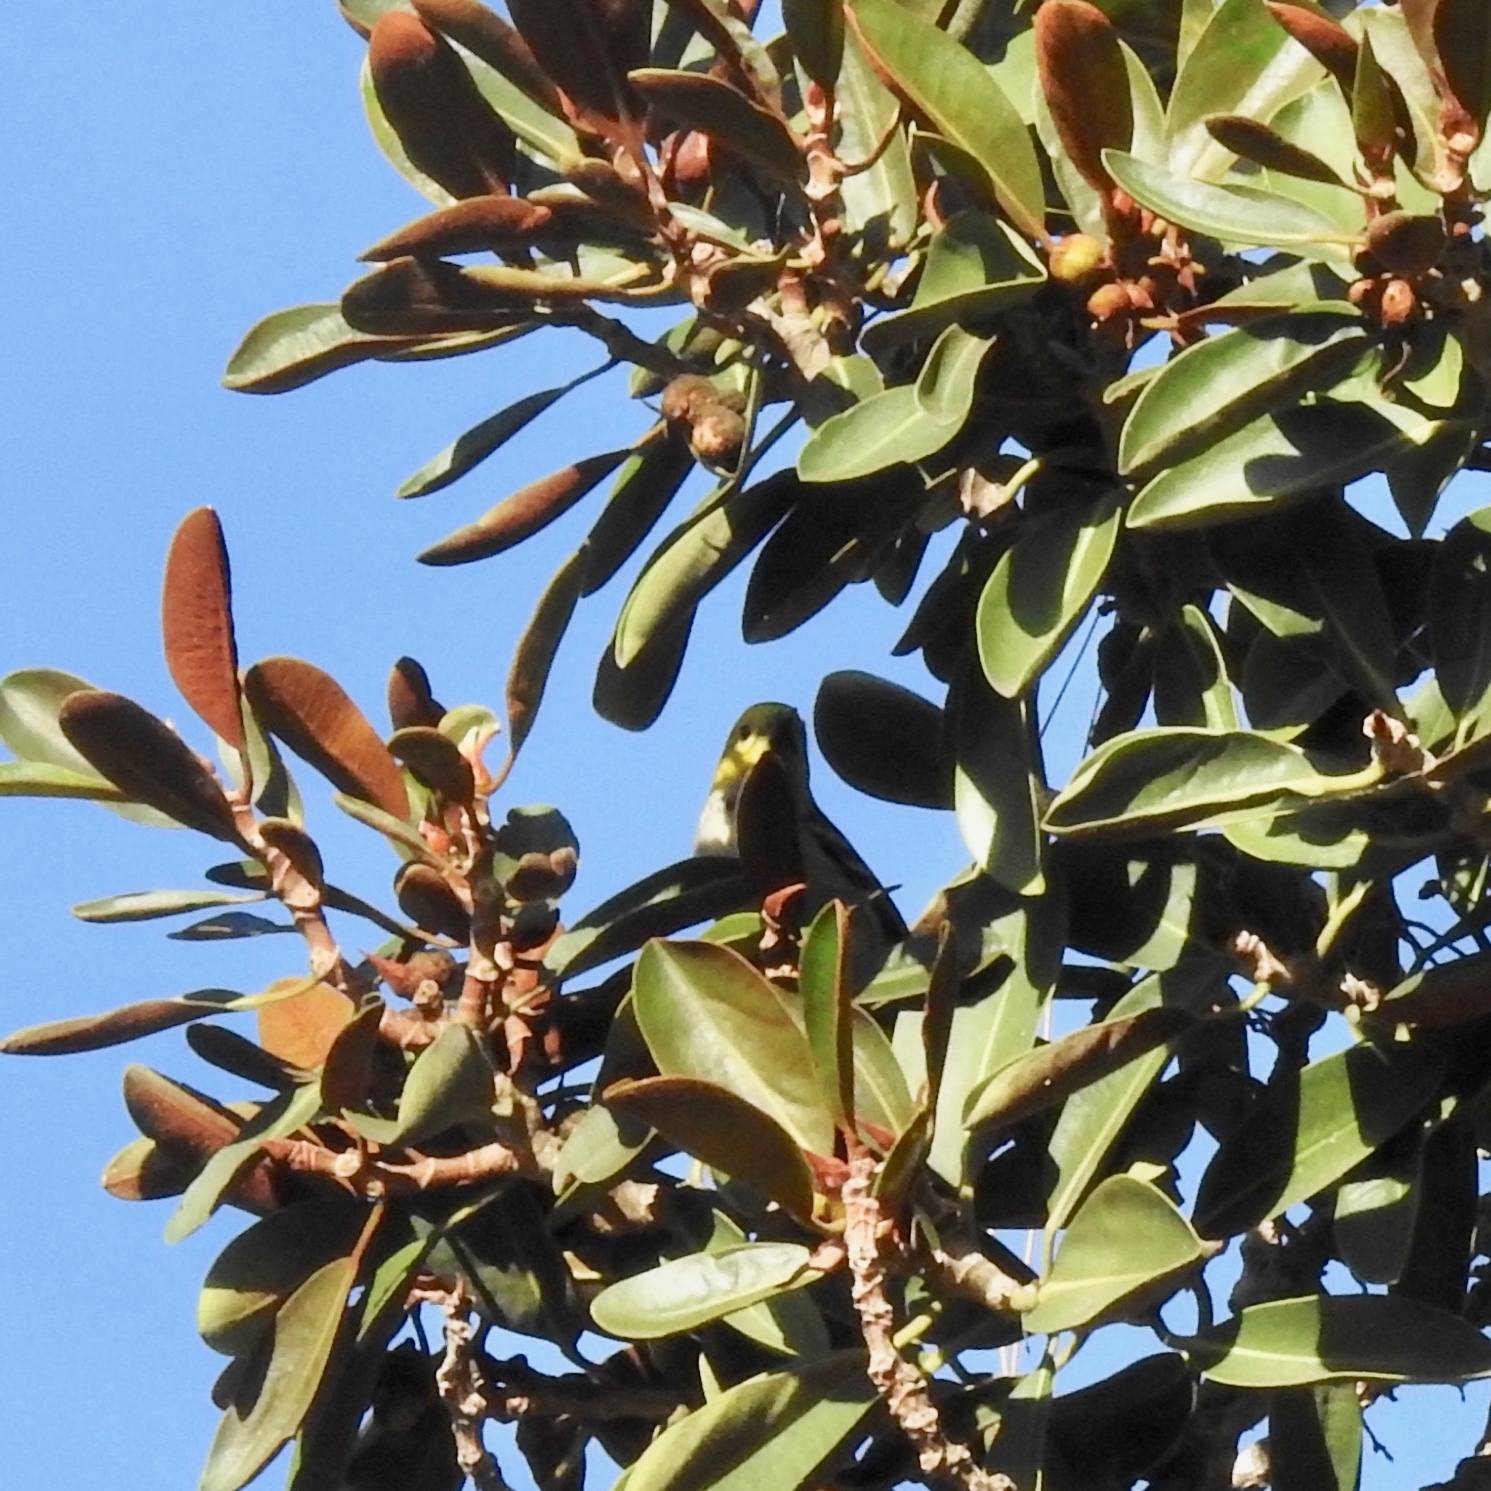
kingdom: Animalia
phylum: Chordata
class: Aves
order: Passeriformes
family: Parulidae
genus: Setophaga
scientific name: Setophaga occidentalis
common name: Hermit warbler
